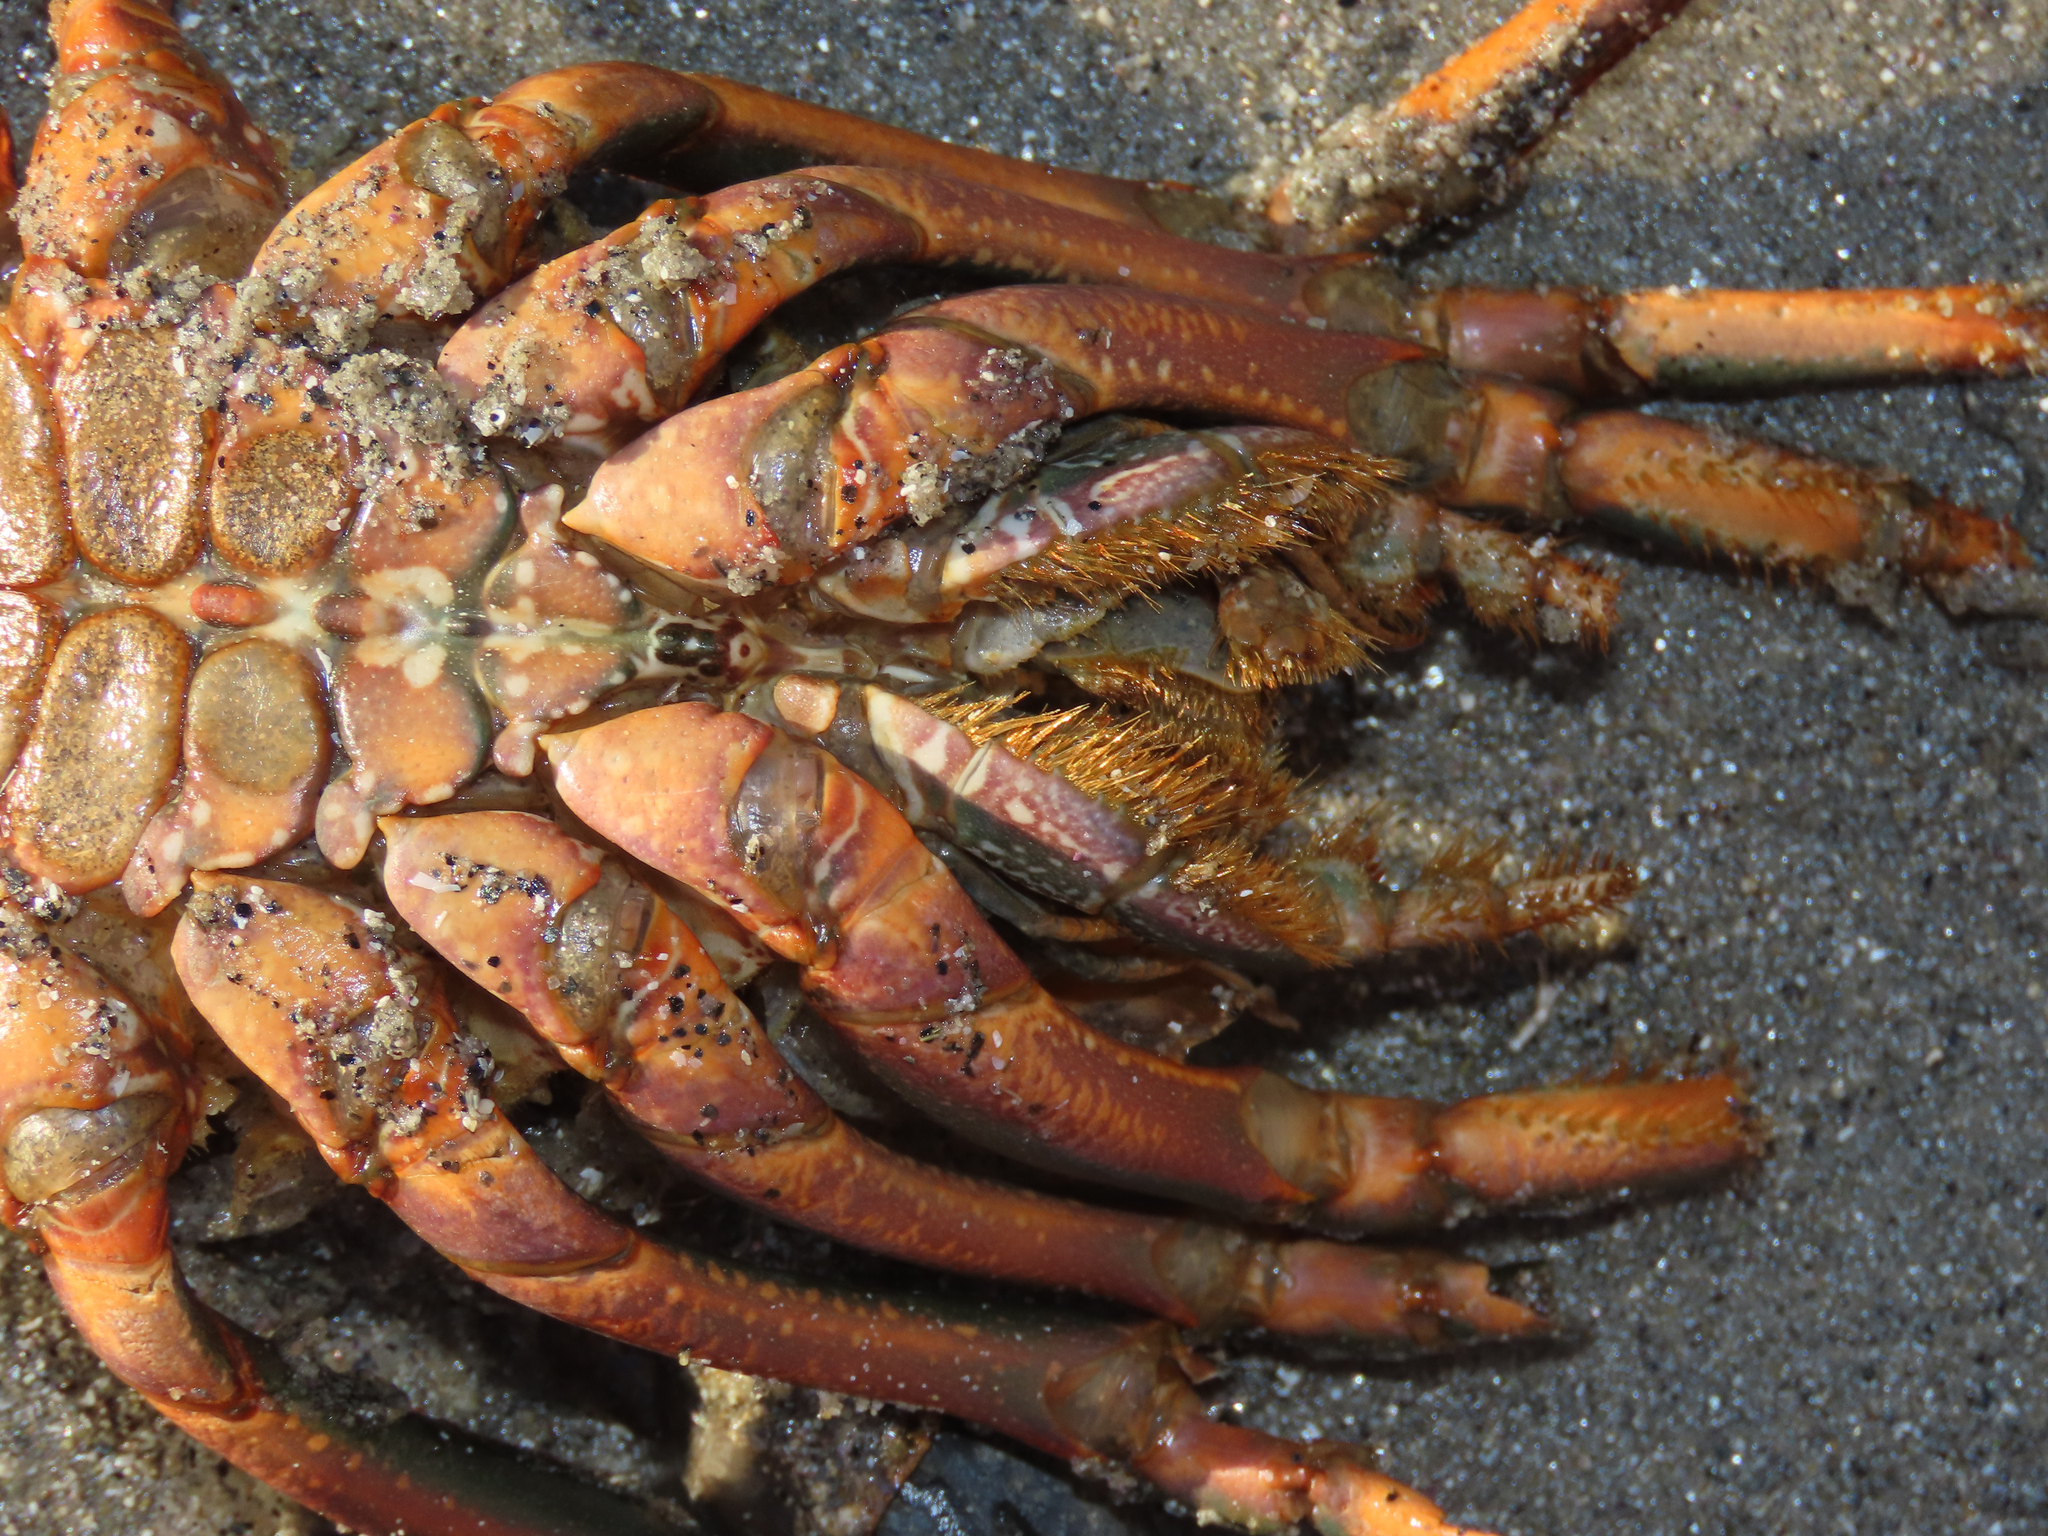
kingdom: Animalia
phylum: Arthropoda
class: Malacostraca
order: Decapoda
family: Palinuridae
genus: Panulirus
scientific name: Panulirus interruptus
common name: California spiny lobster
